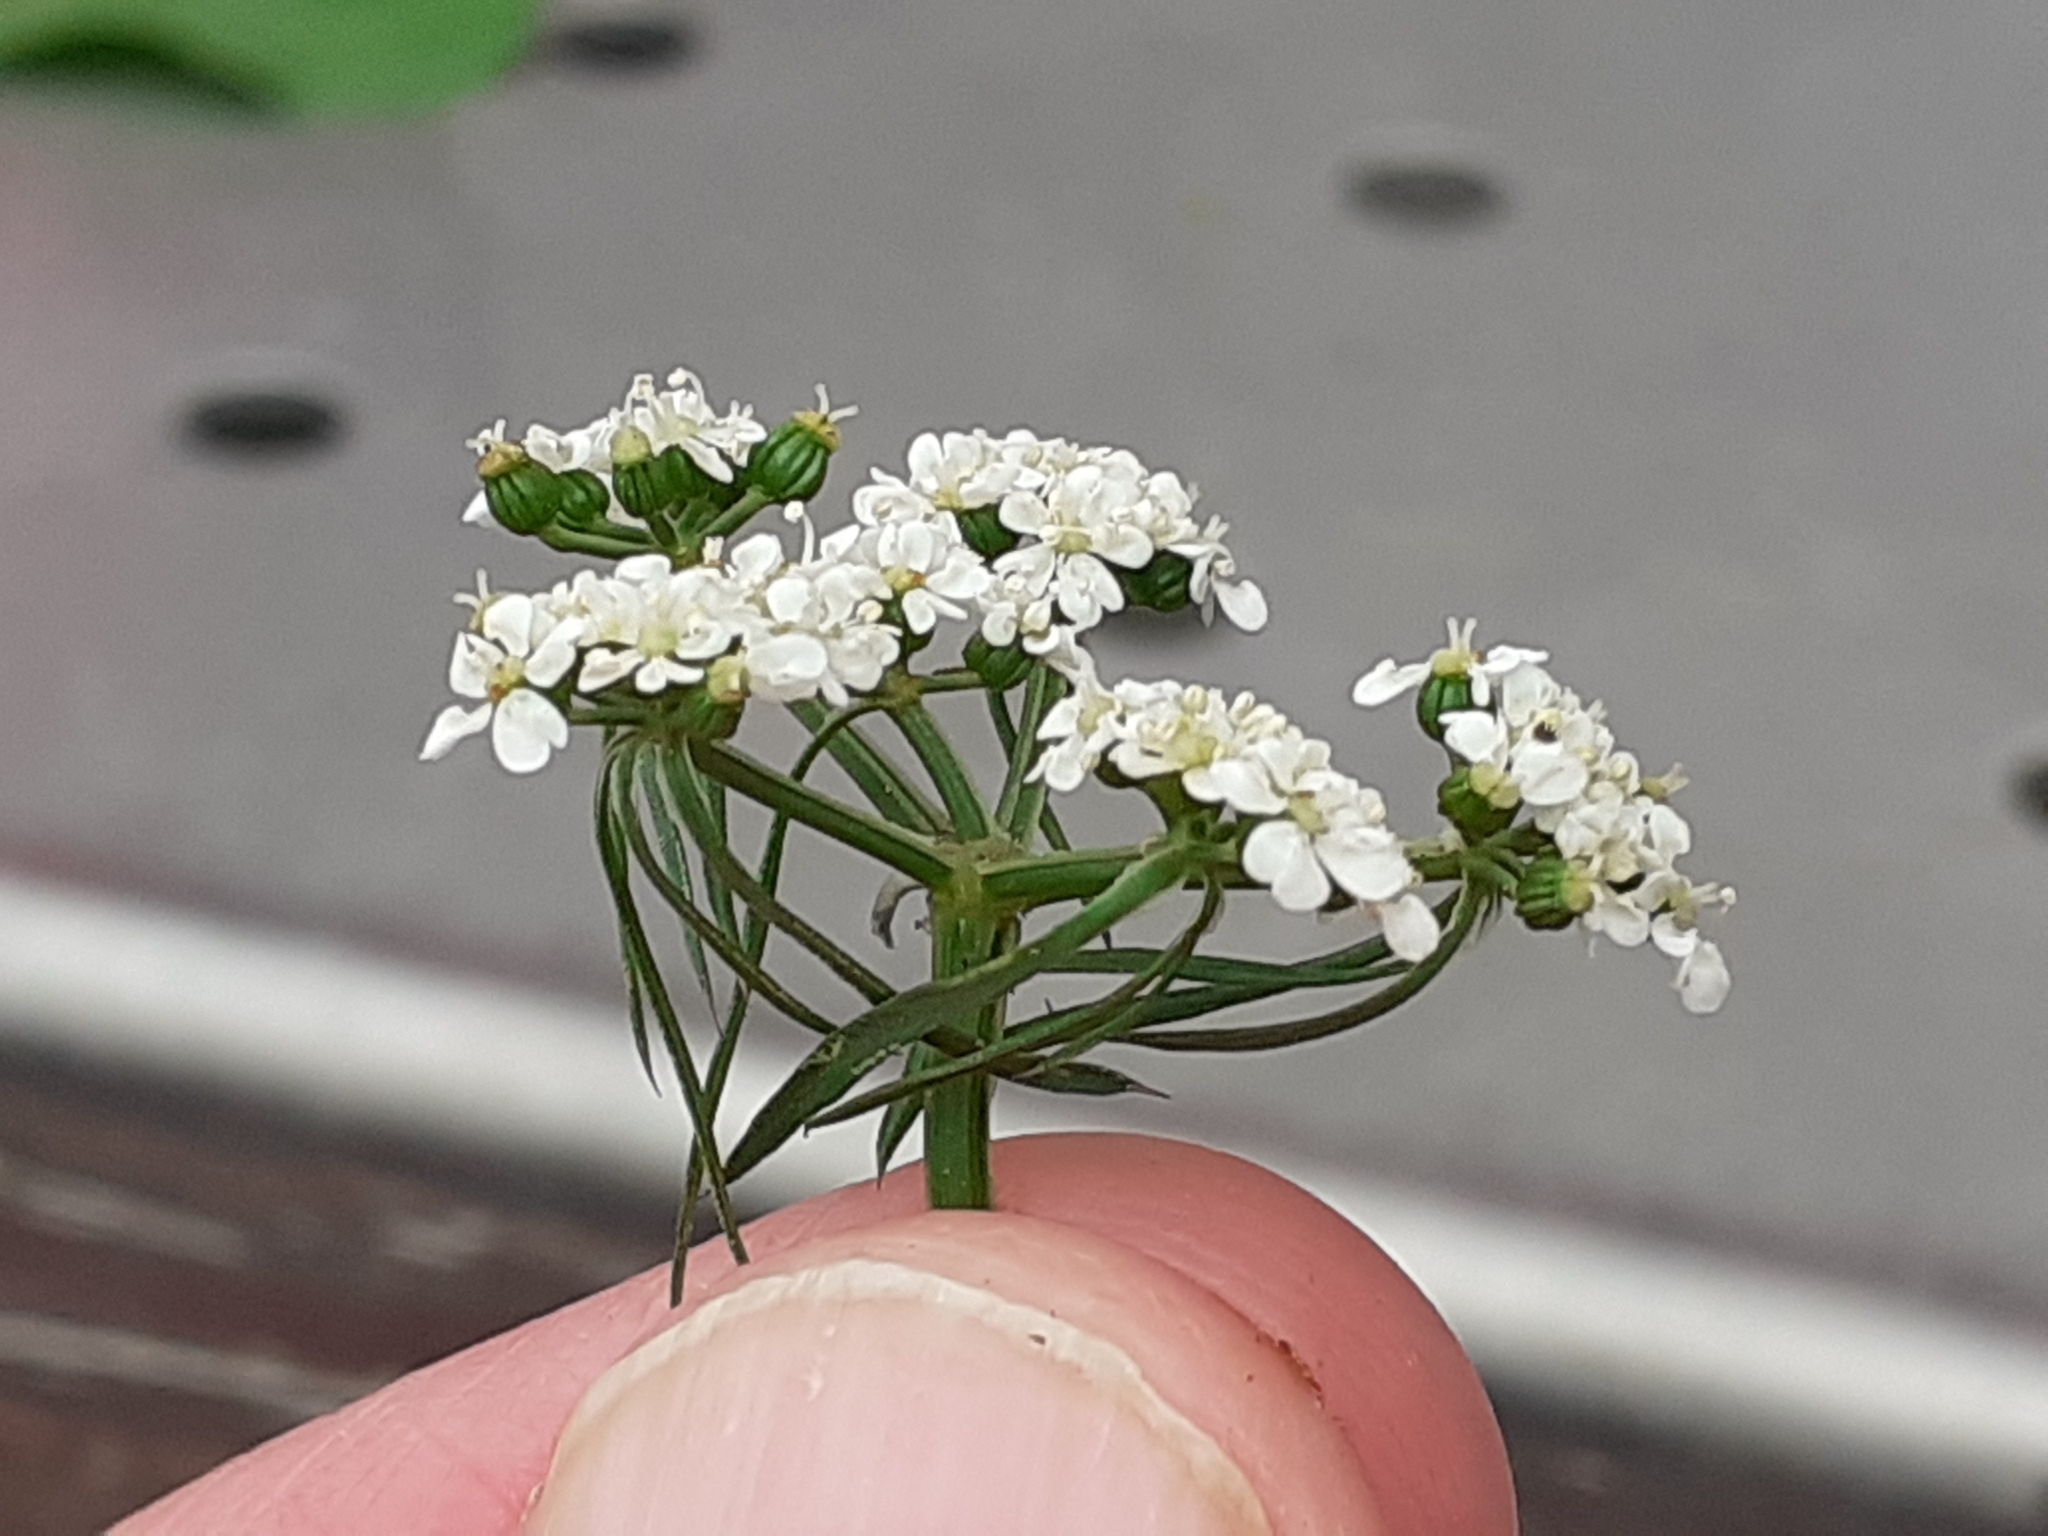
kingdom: Plantae
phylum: Tracheophyta
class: Magnoliopsida
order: Apiales
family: Apiaceae
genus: Aethusa
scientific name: Aethusa cynapium
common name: Fool's parsley
